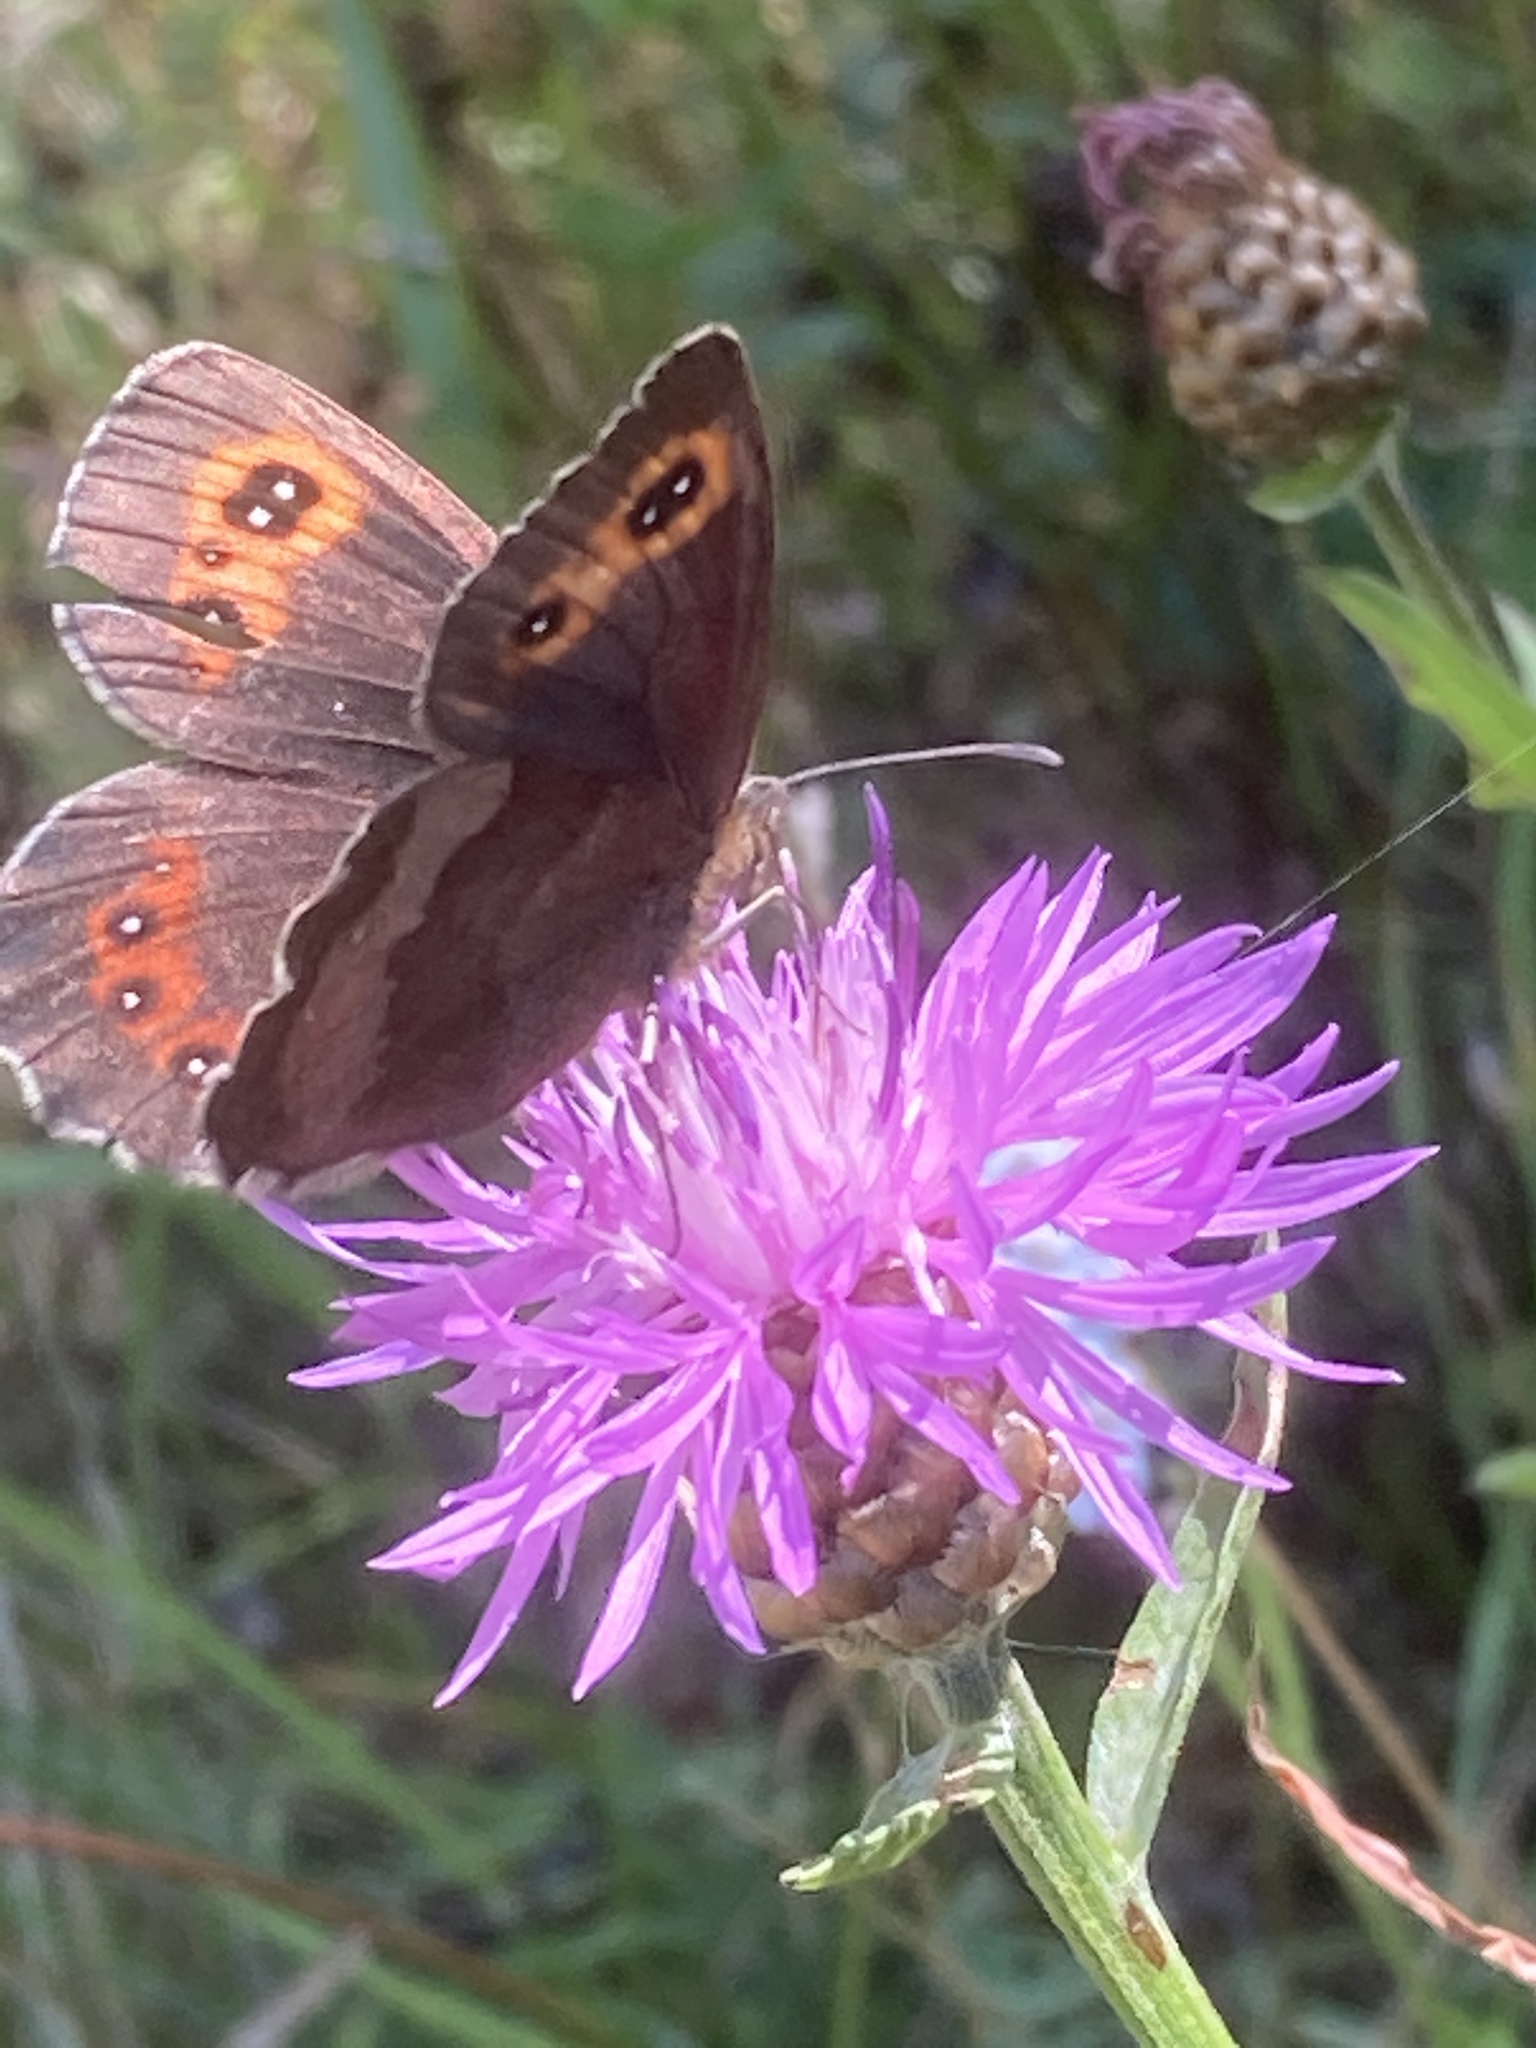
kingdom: Animalia
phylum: Arthropoda
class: Insecta
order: Lepidoptera
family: Nymphalidae
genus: Erebia
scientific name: Erebia aethiops
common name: Scotch argus
